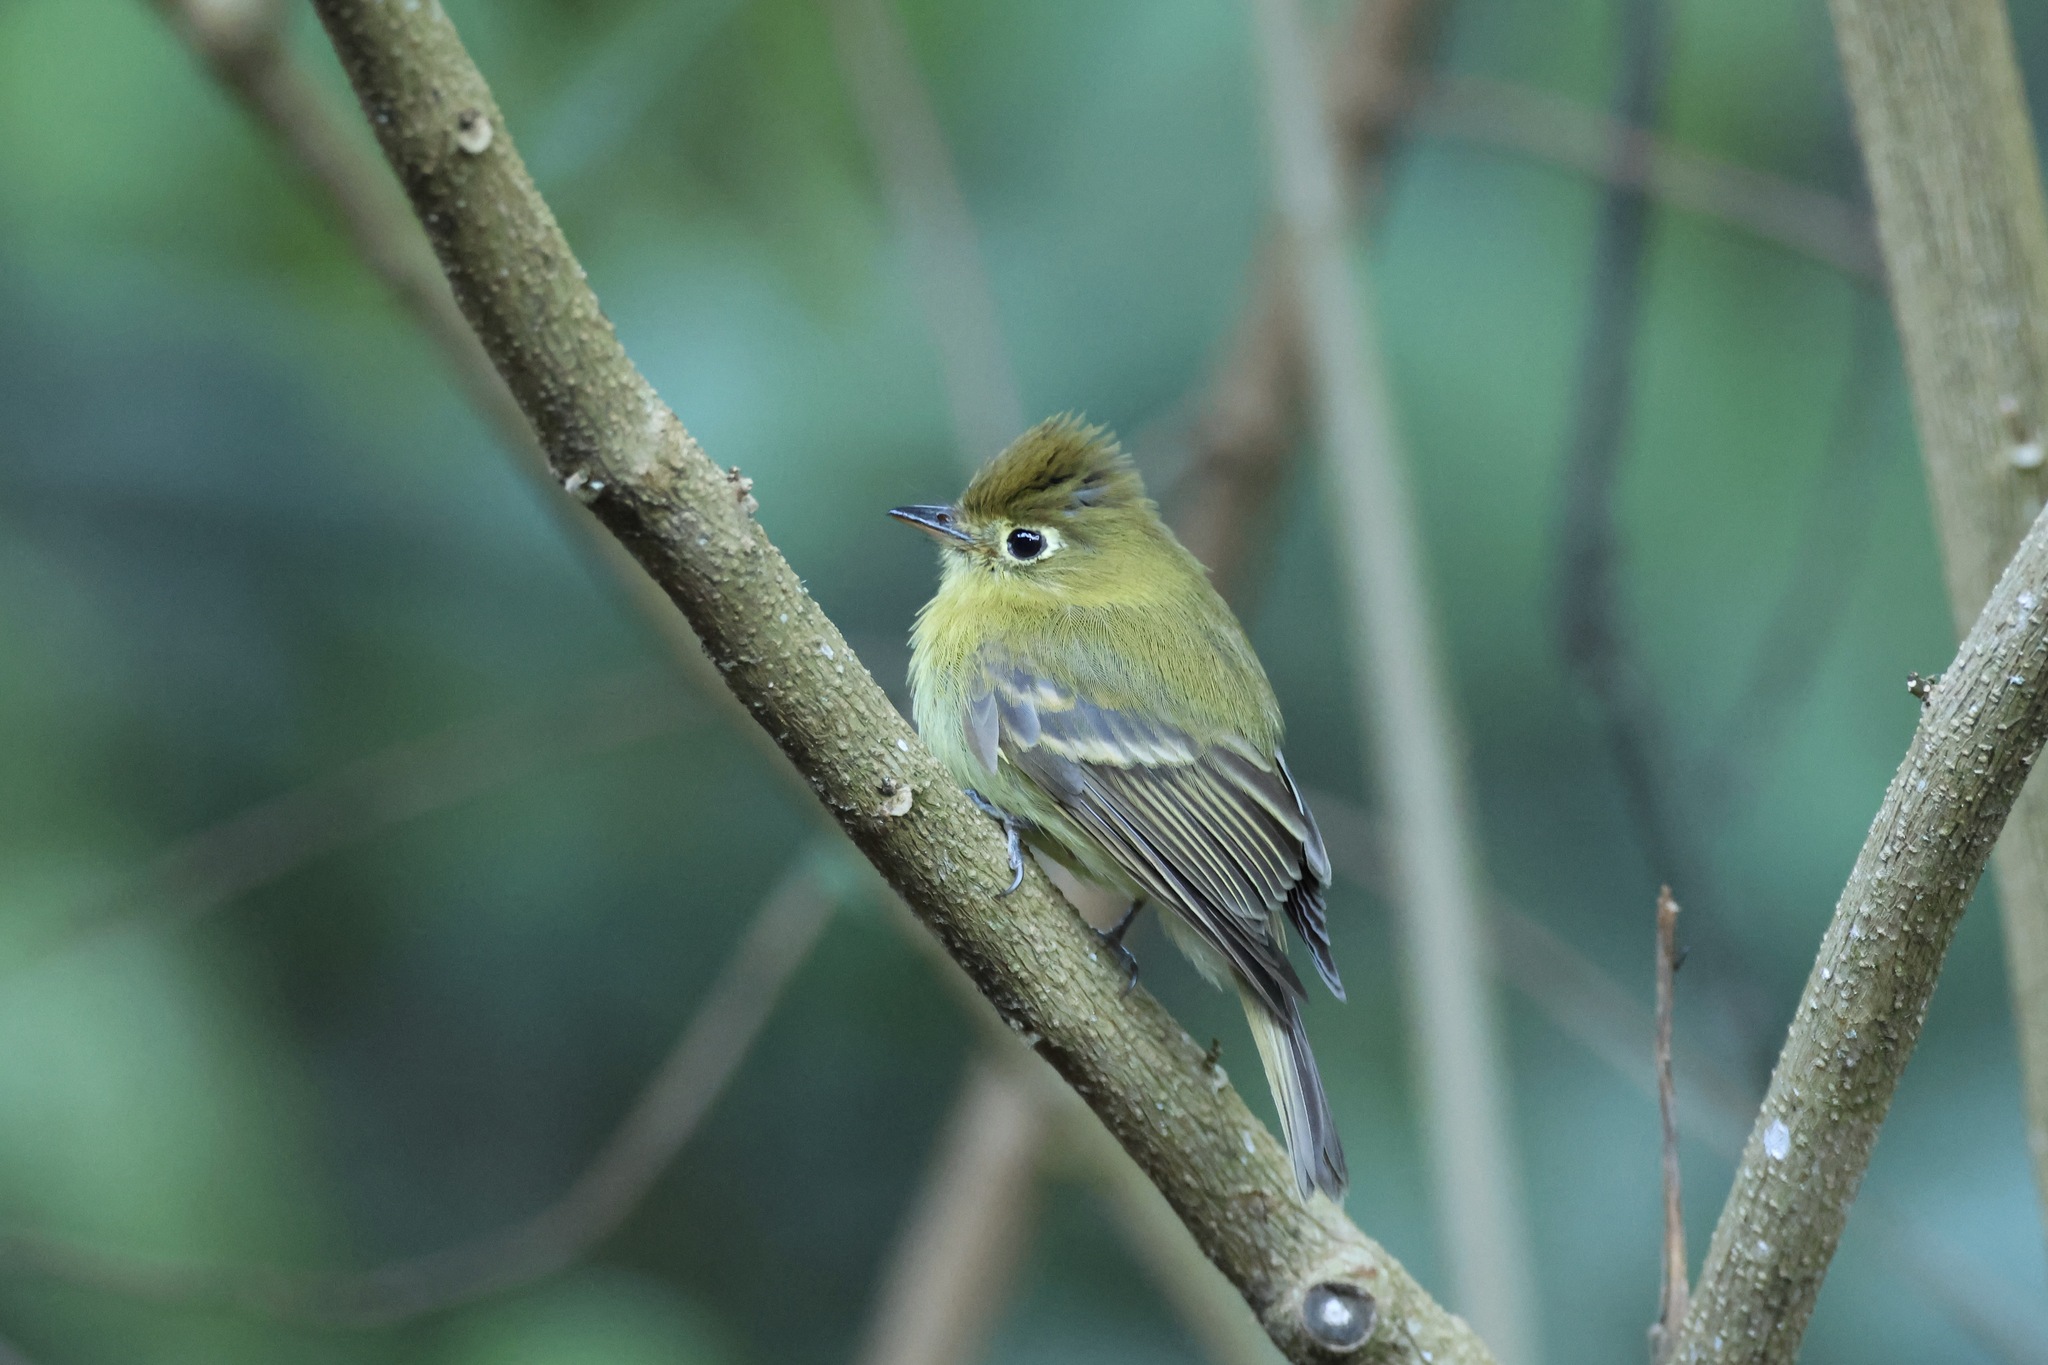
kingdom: Animalia
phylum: Chordata
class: Aves
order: Passeriformes
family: Tyrannidae
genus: Empidonax
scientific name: Empidonax flavescens
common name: Yellowish flycatcher
